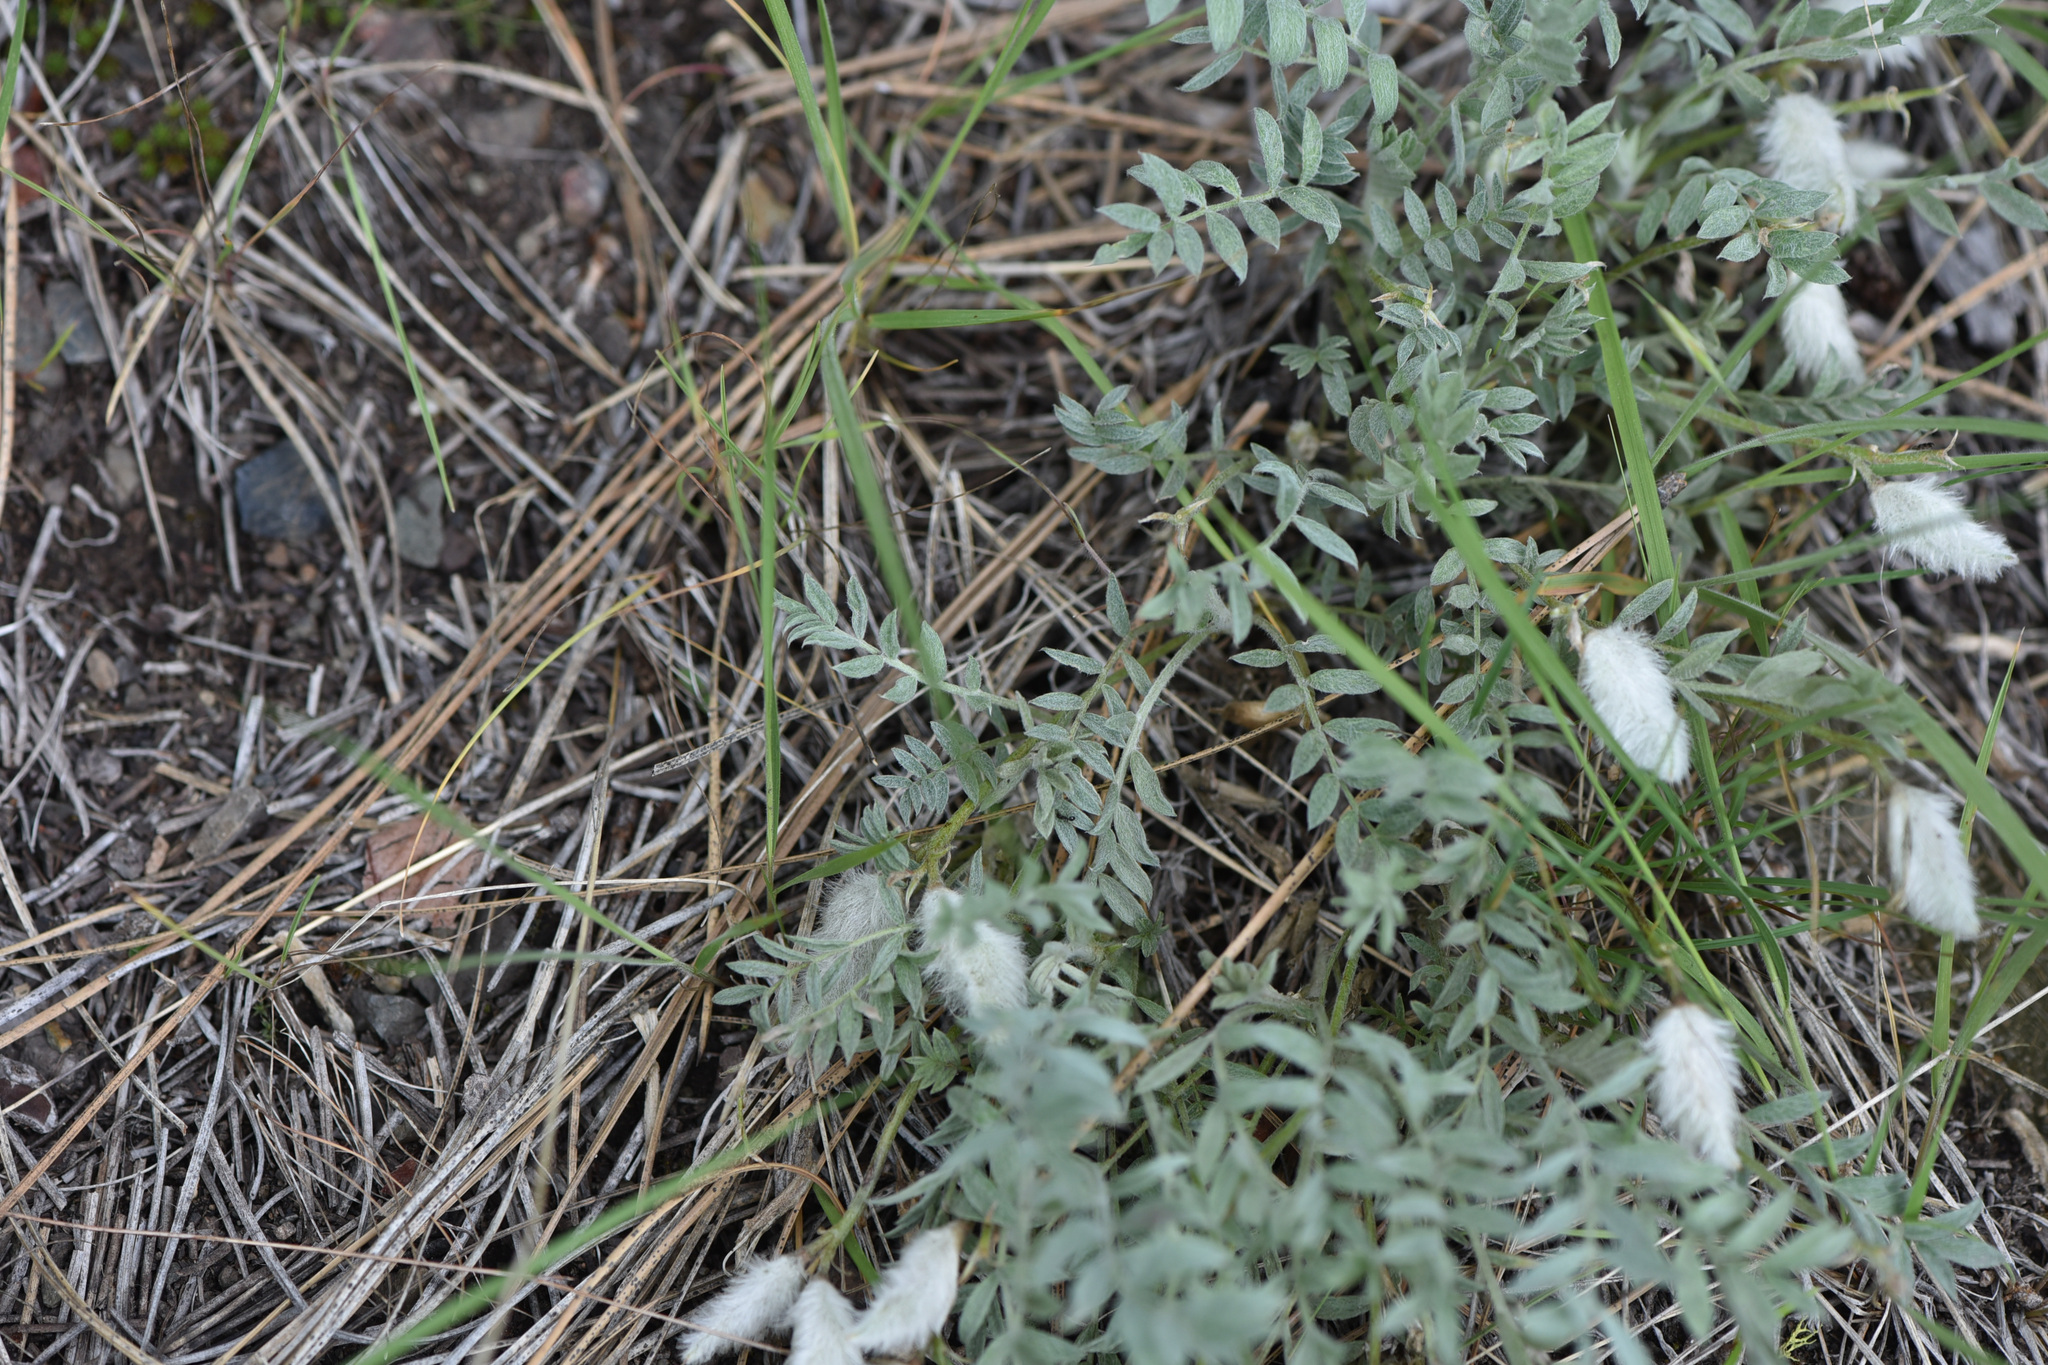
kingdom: Plantae
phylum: Tracheophyta
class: Magnoliopsida
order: Fabales
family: Fabaceae
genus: Astragalus
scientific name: Astragalus purshii
